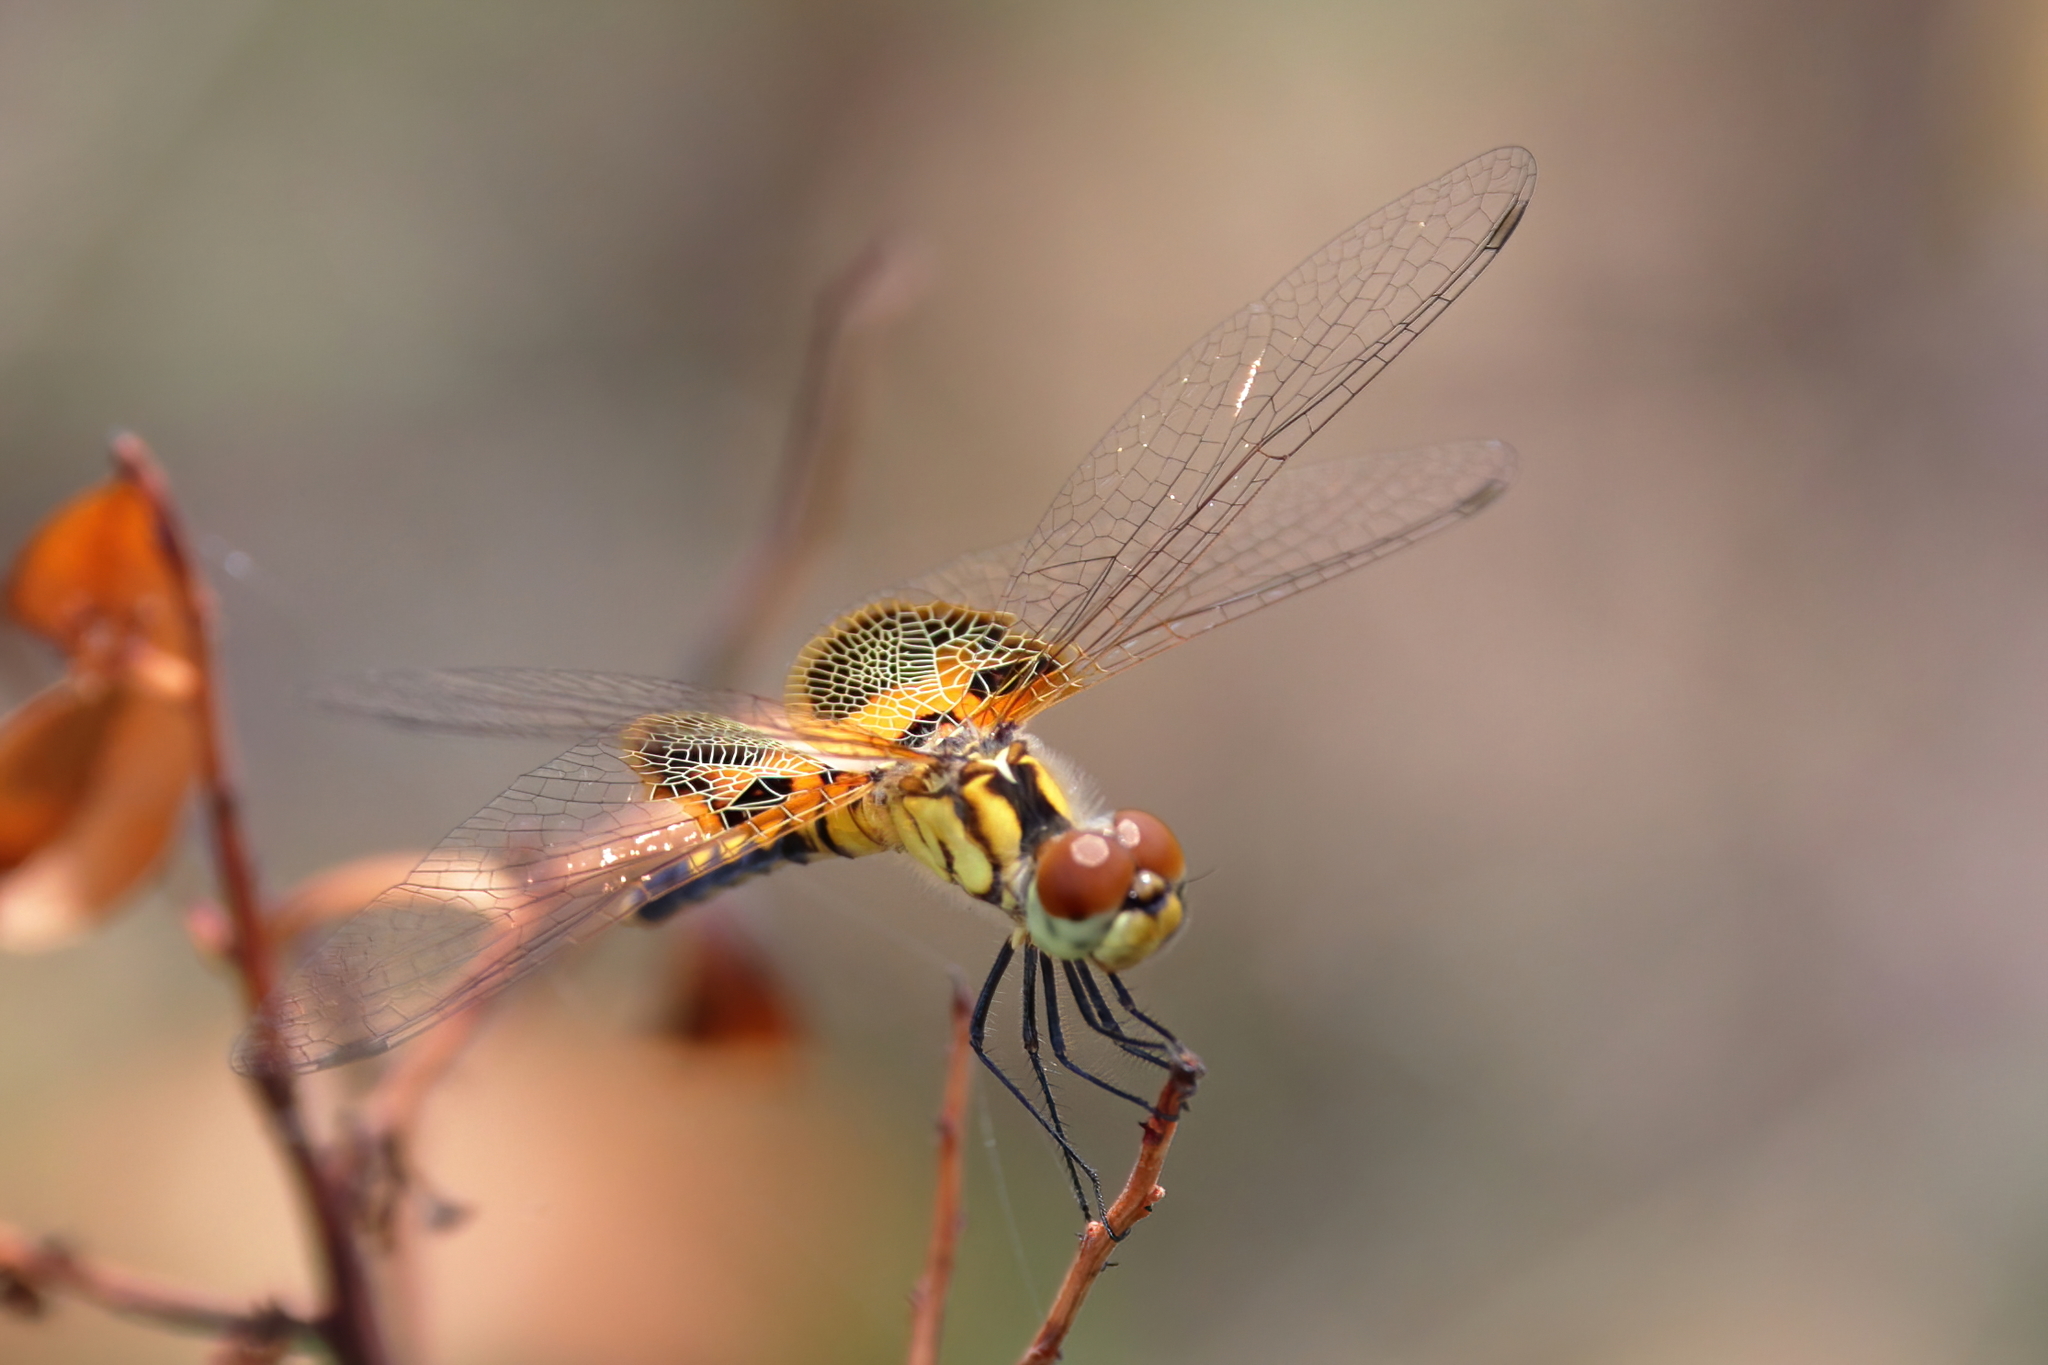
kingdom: Animalia
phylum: Arthropoda
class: Insecta
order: Odonata
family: Libellulidae
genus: Celithemis
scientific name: Celithemis amanda
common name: Amanda's pennant
